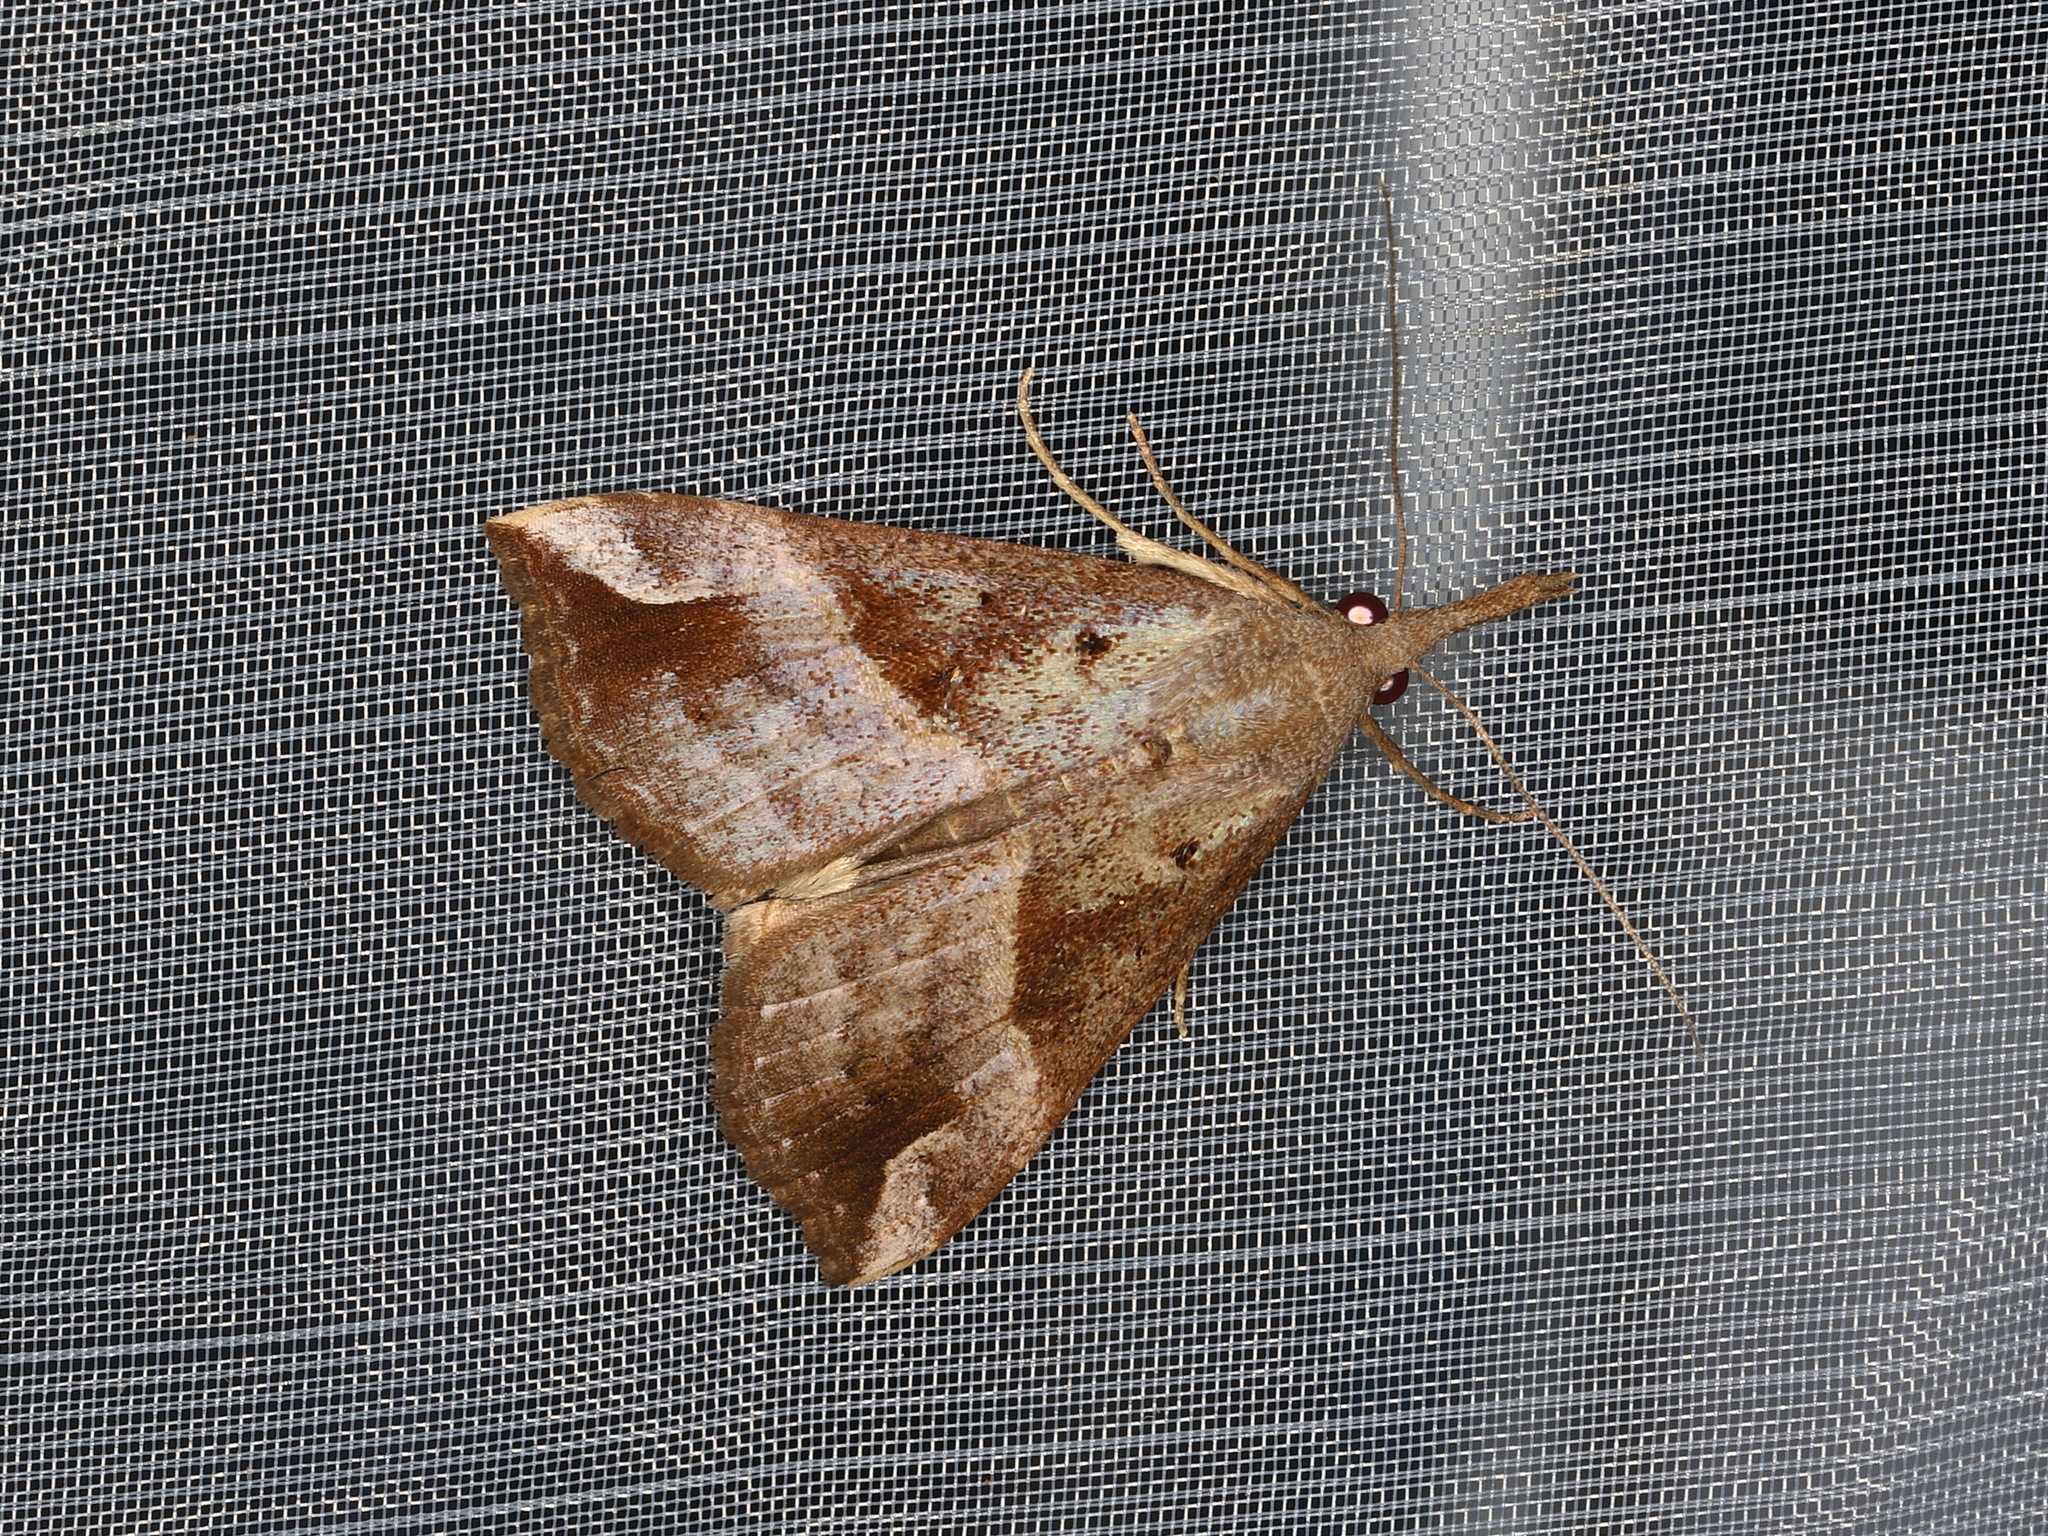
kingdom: Animalia
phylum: Arthropoda
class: Insecta
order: Lepidoptera
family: Erebidae
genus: Hypena
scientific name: Hypena pelodes
